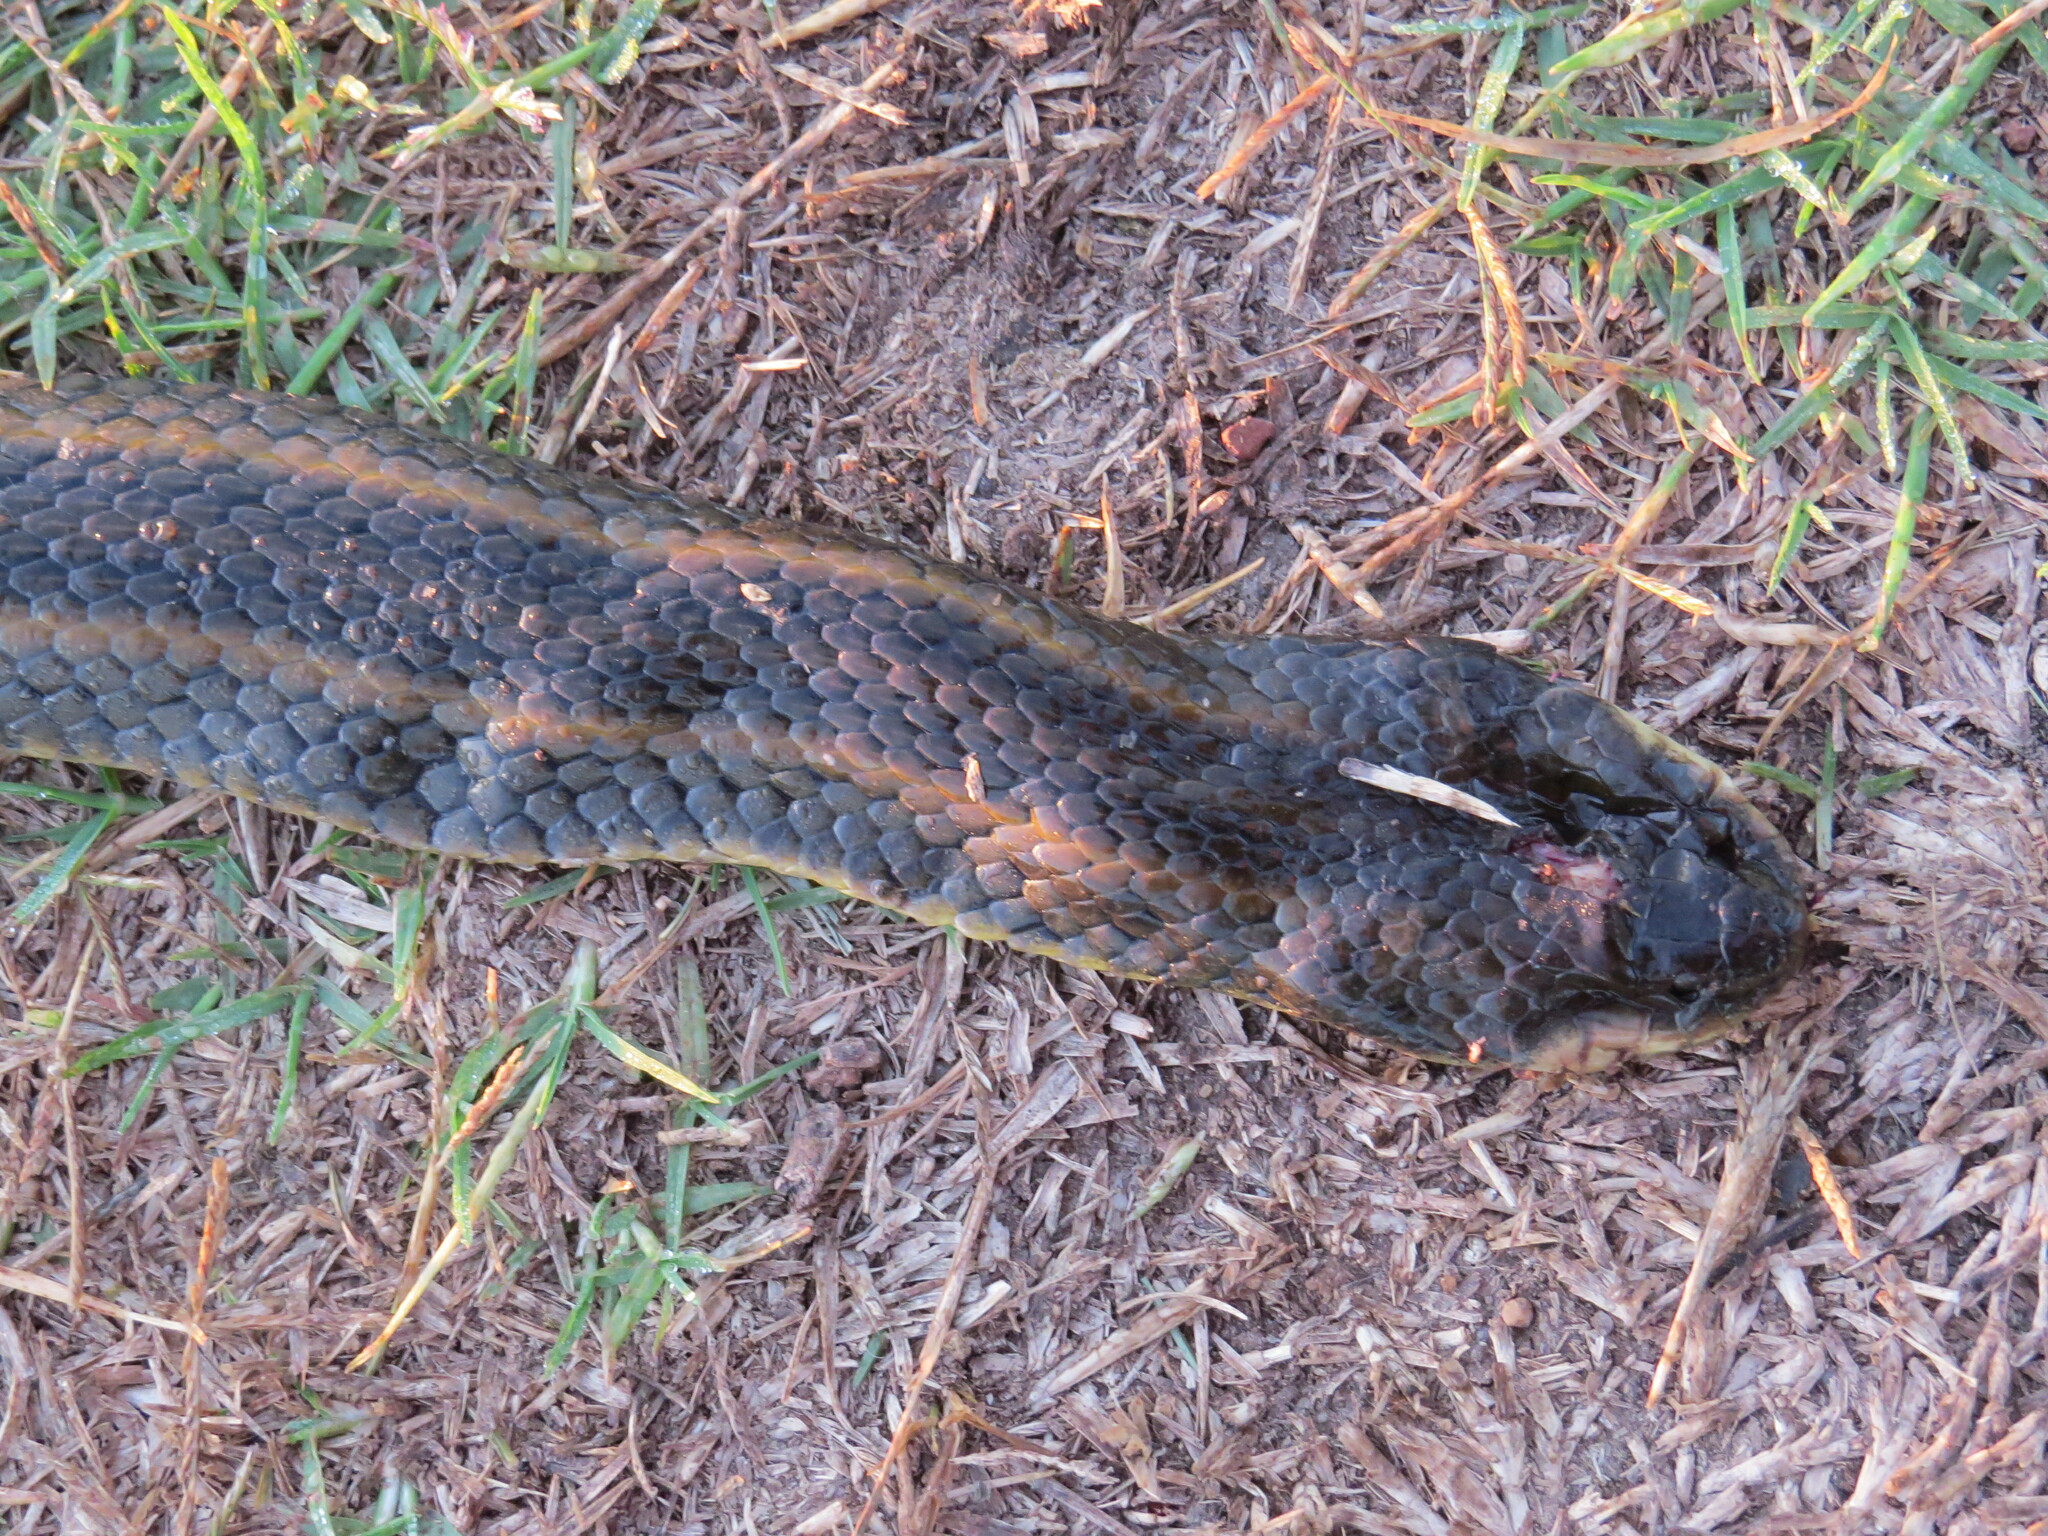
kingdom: Animalia
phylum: Chordata
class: Squamata
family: Colubridae
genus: Helicops
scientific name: Helicops infrataeniatus
